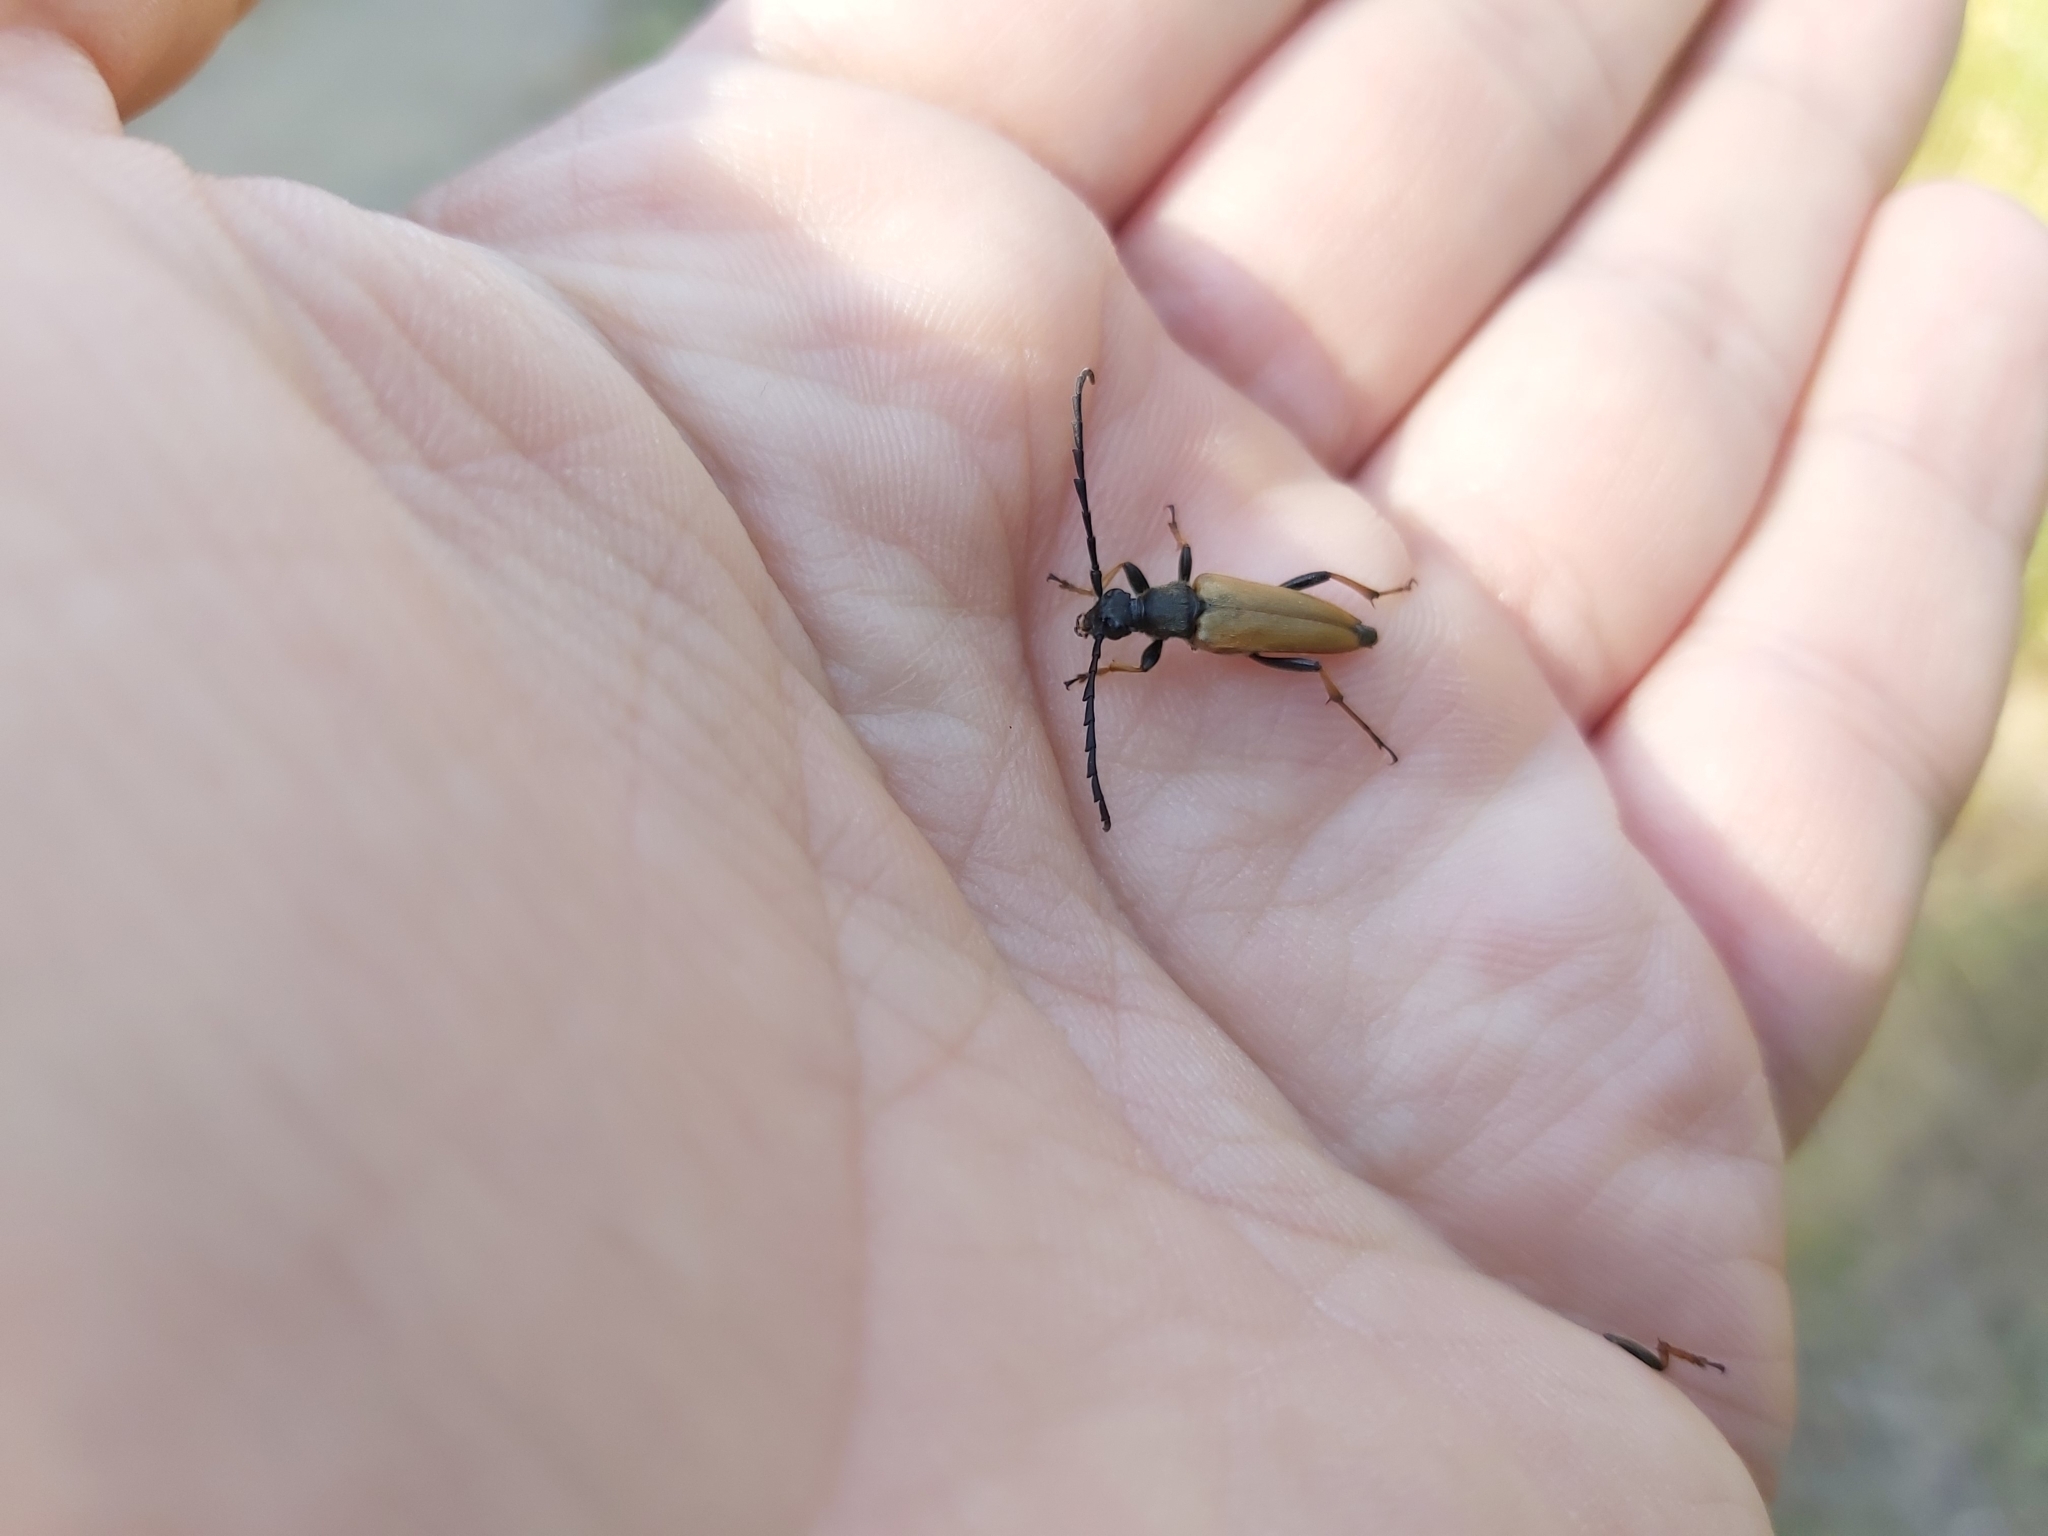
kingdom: Animalia
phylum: Arthropoda
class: Insecta
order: Coleoptera
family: Cerambycidae
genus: Stictoleptura
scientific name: Stictoleptura rubra
